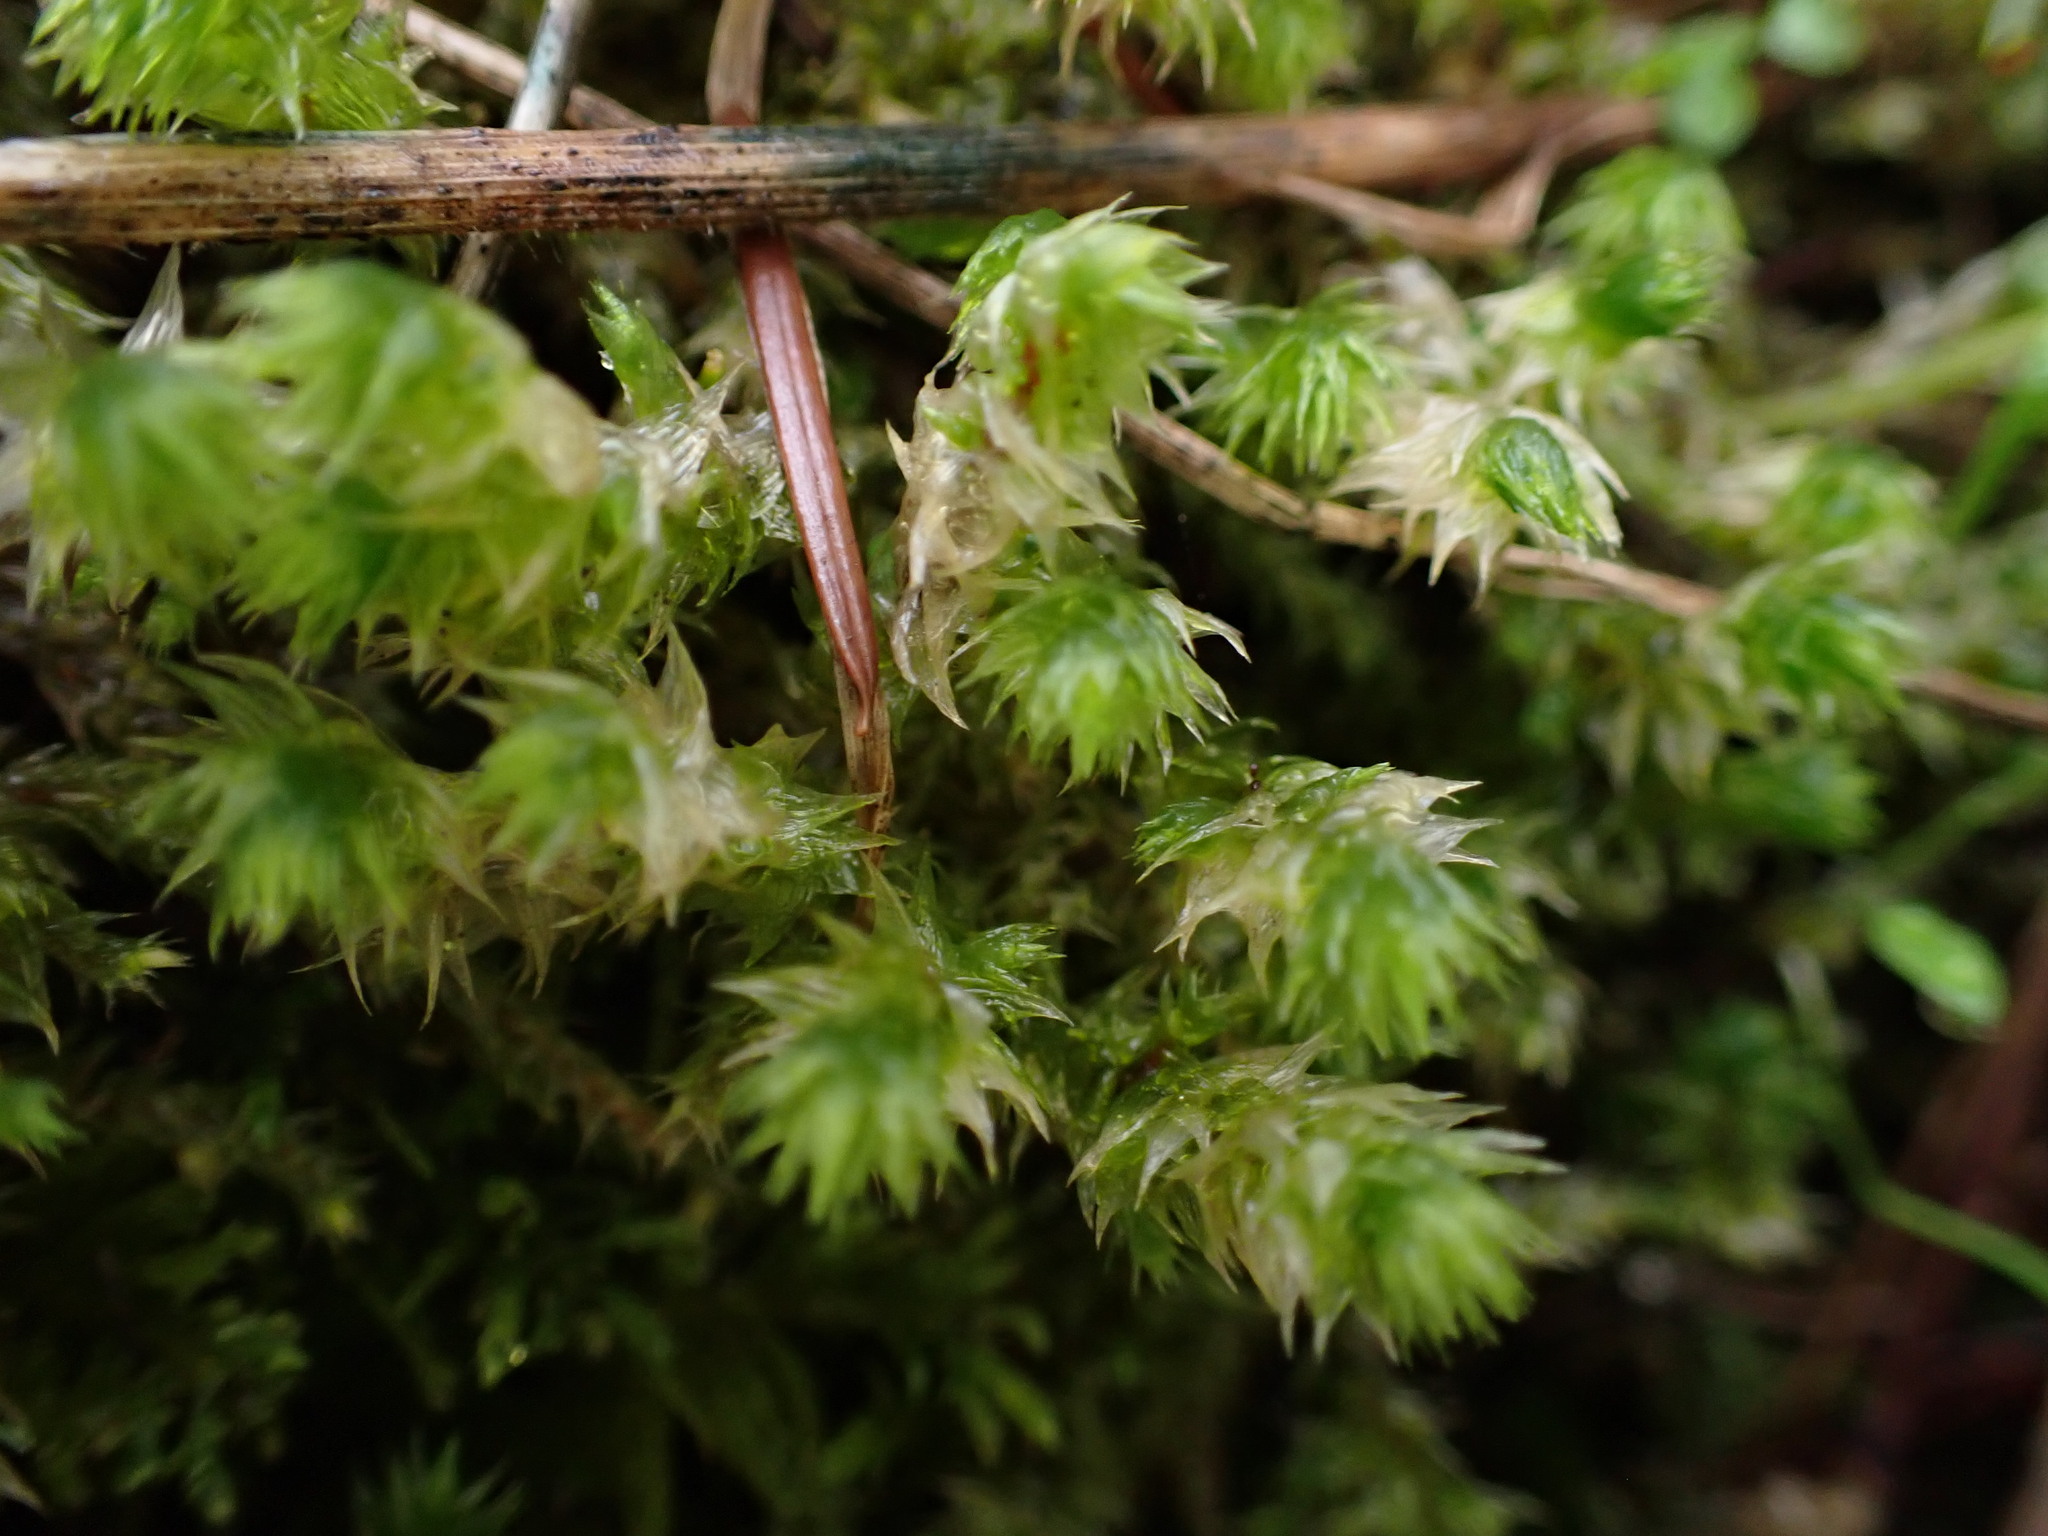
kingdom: Plantae
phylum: Bryophyta
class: Bryopsida
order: Hypnales
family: Hylocomiaceae
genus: Hylocomiadelphus
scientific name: Hylocomiadelphus triquetrus
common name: Rough goose neck moss
